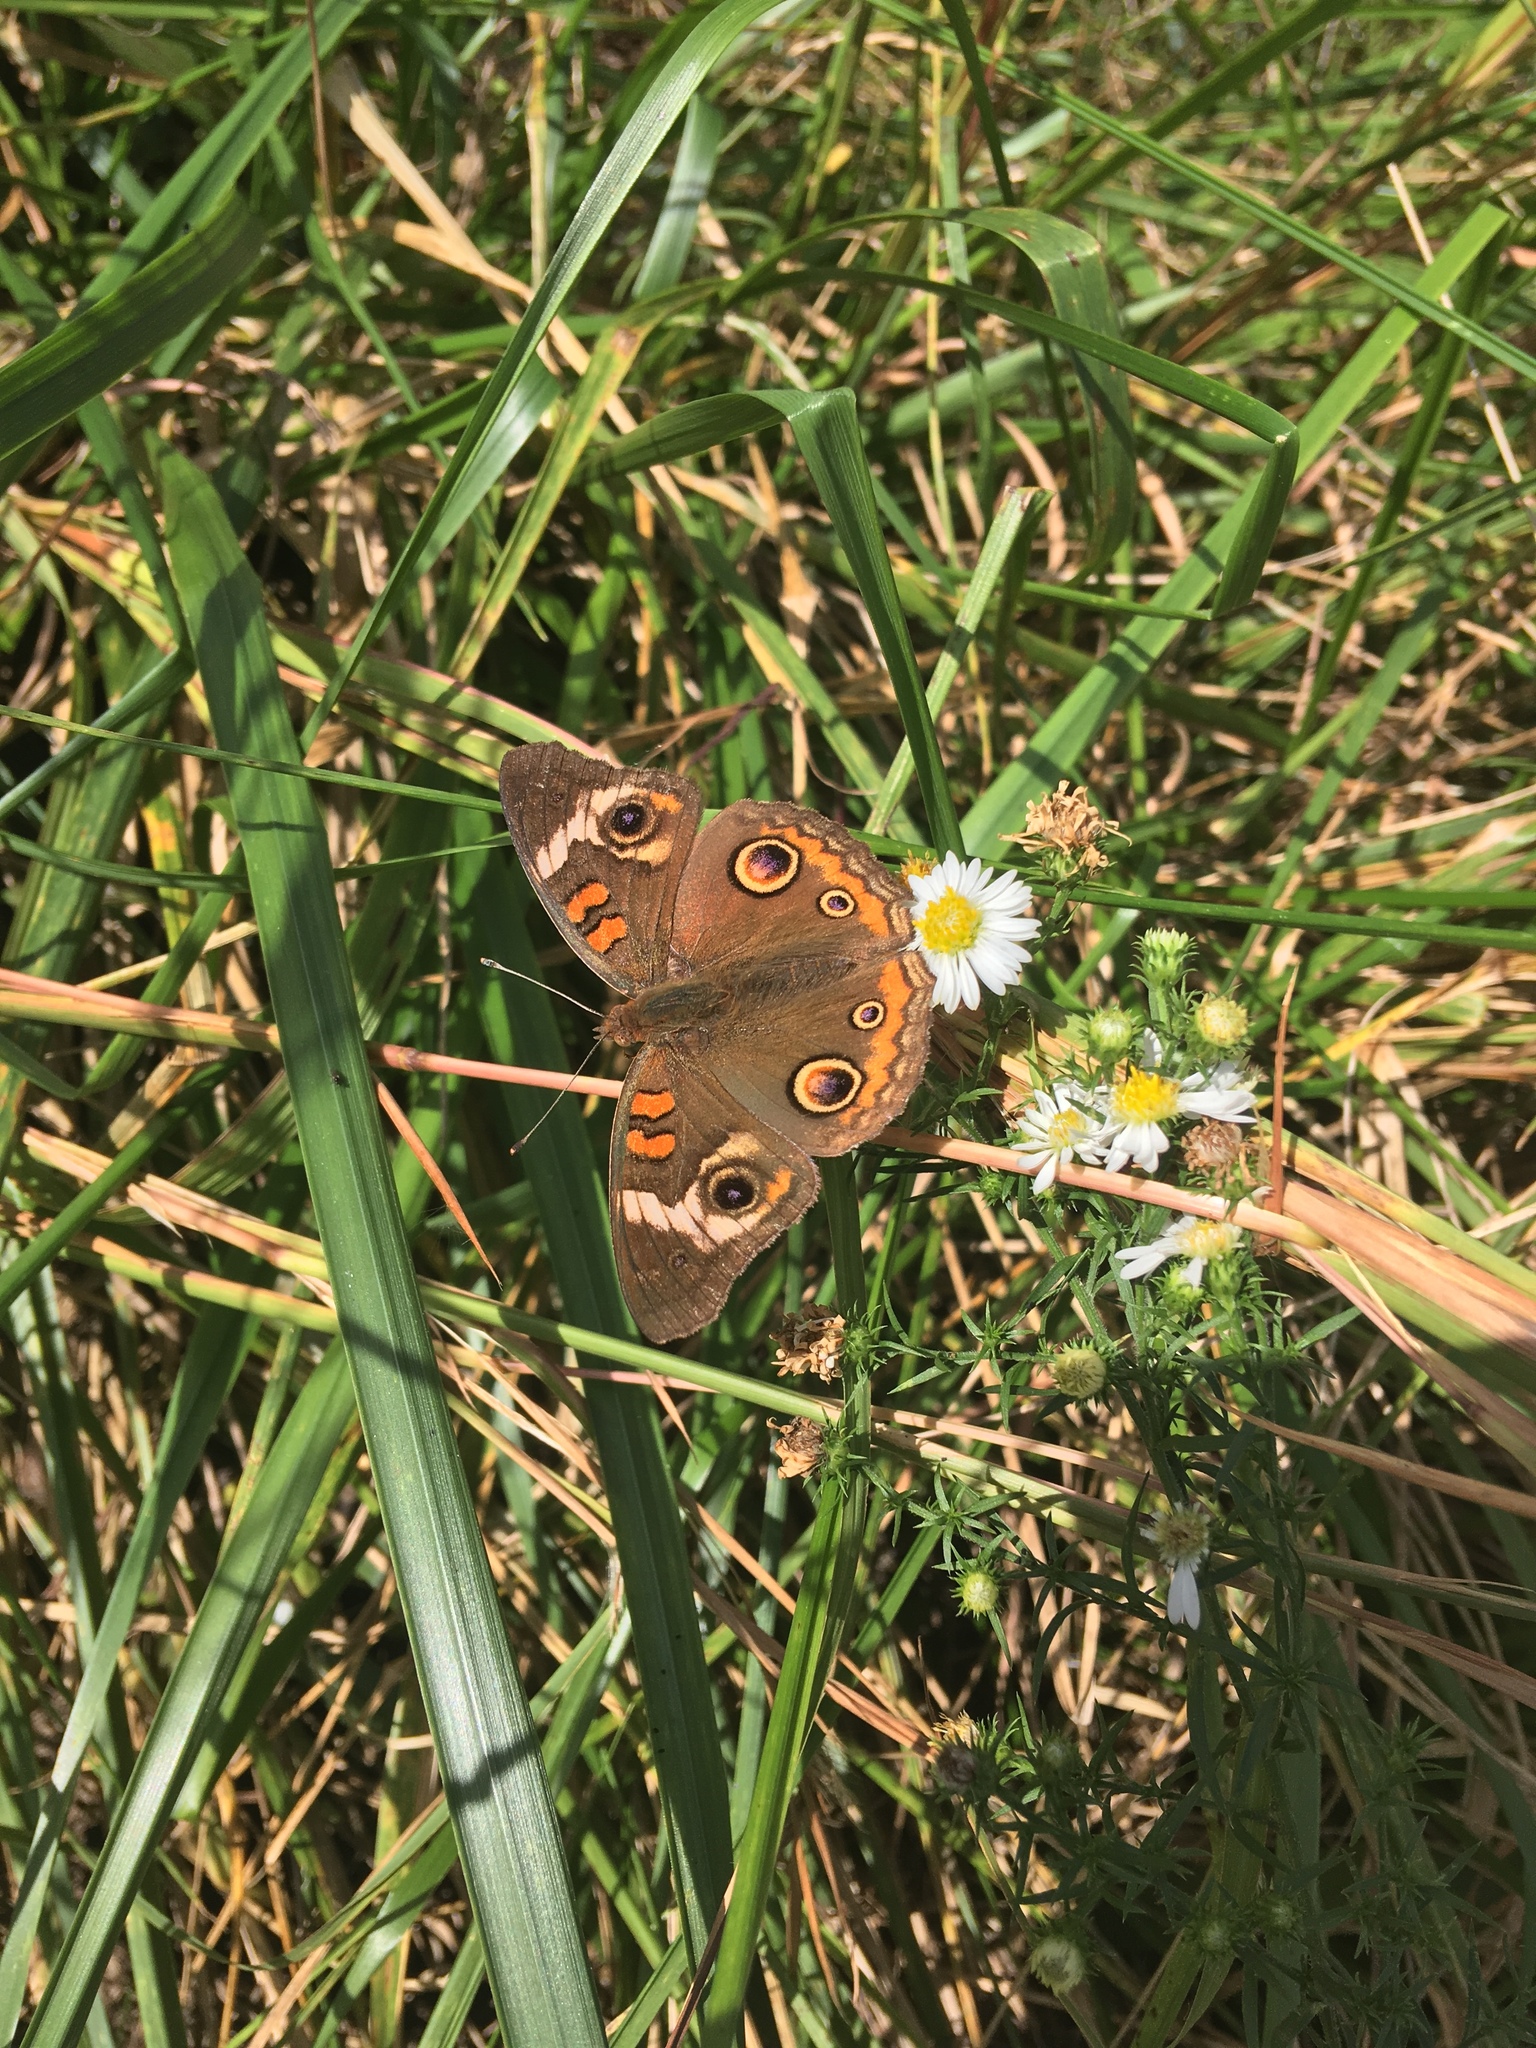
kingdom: Animalia
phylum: Arthropoda
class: Insecta
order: Lepidoptera
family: Nymphalidae
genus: Junonia
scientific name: Junonia coenia
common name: Common buckeye
